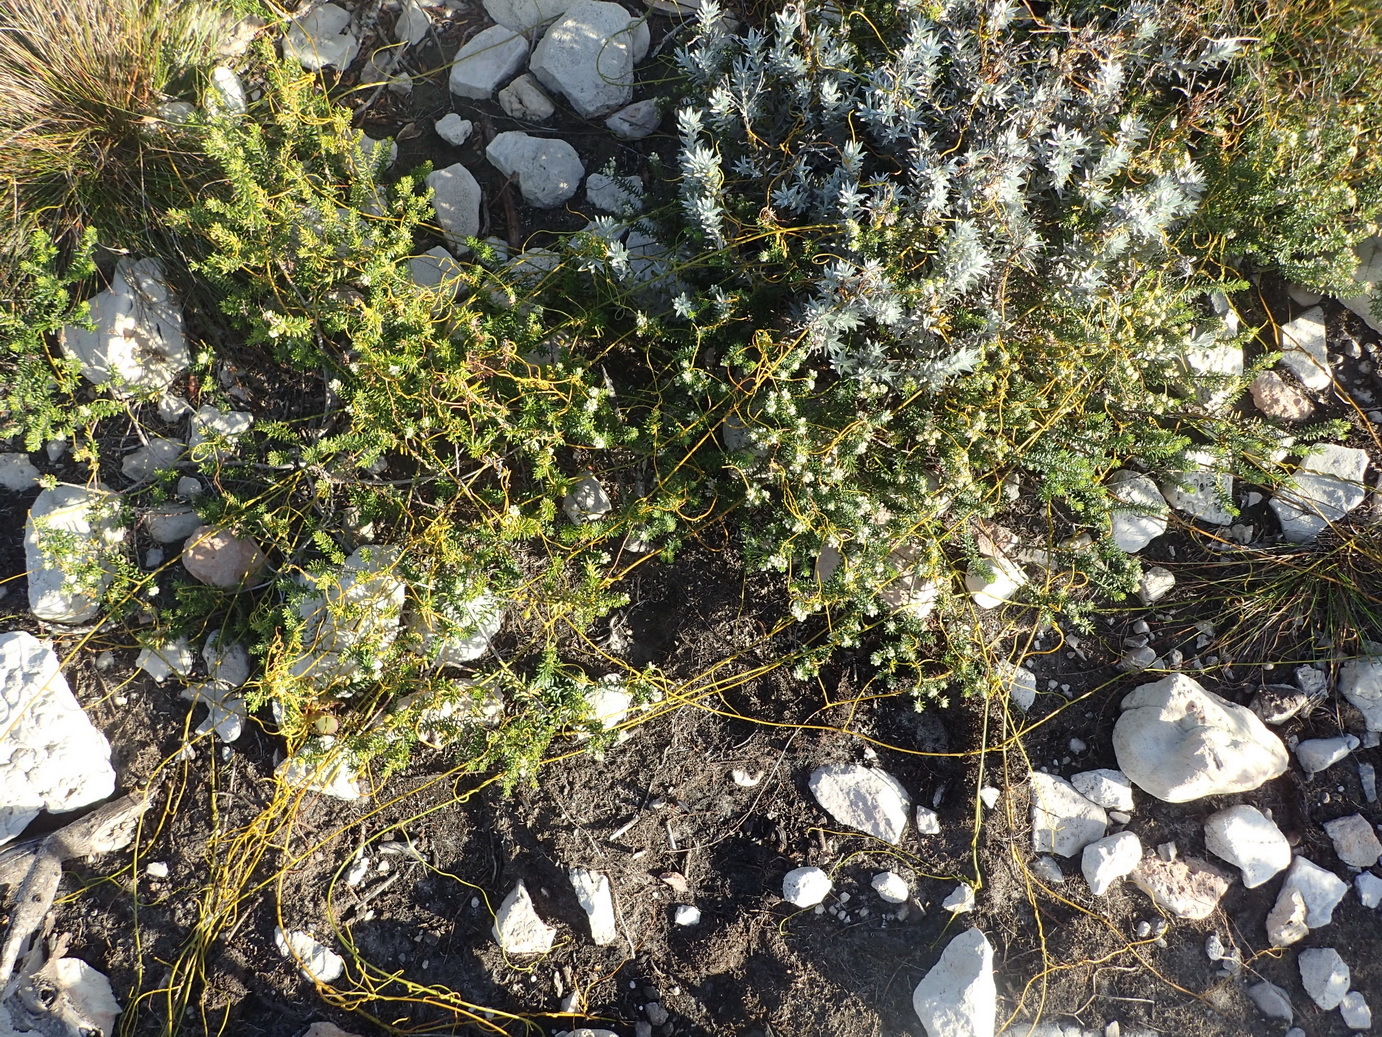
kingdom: Plantae
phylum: Tracheophyta
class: Magnoliopsida
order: Laurales
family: Lauraceae
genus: Cassytha
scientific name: Cassytha ciliolata
